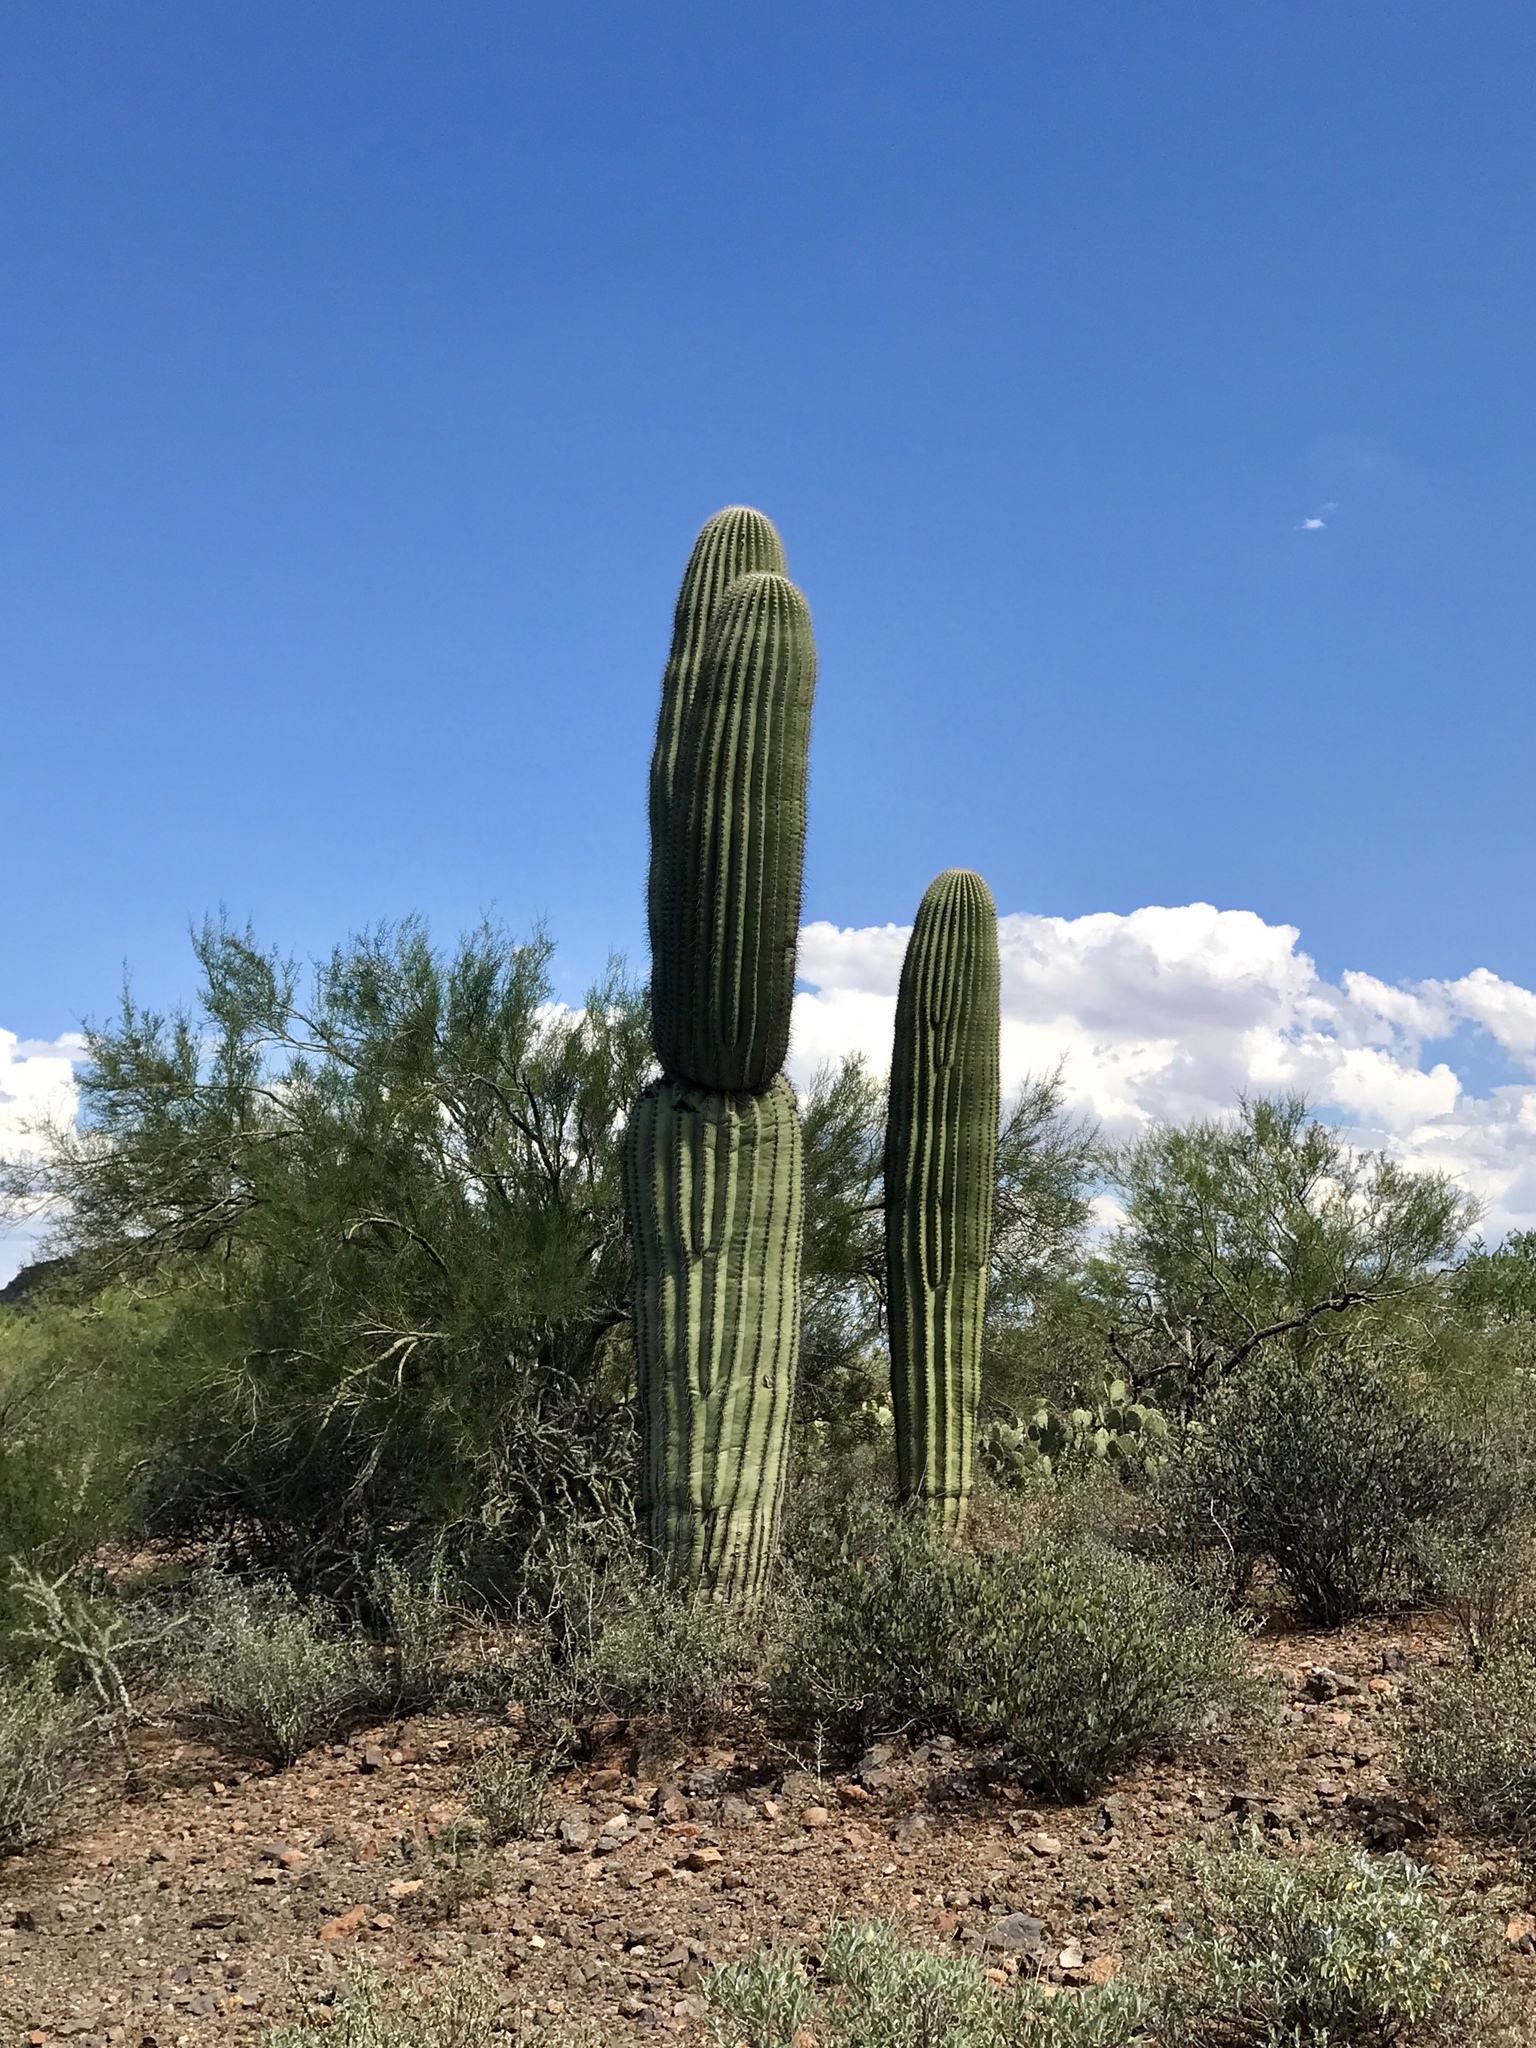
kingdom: Plantae
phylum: Tracheophyta
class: Magnoliopsida
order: Caryophyllales
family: Cactaceae
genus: Carnegiea
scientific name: Carnegiea gigantea
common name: Saguaro
